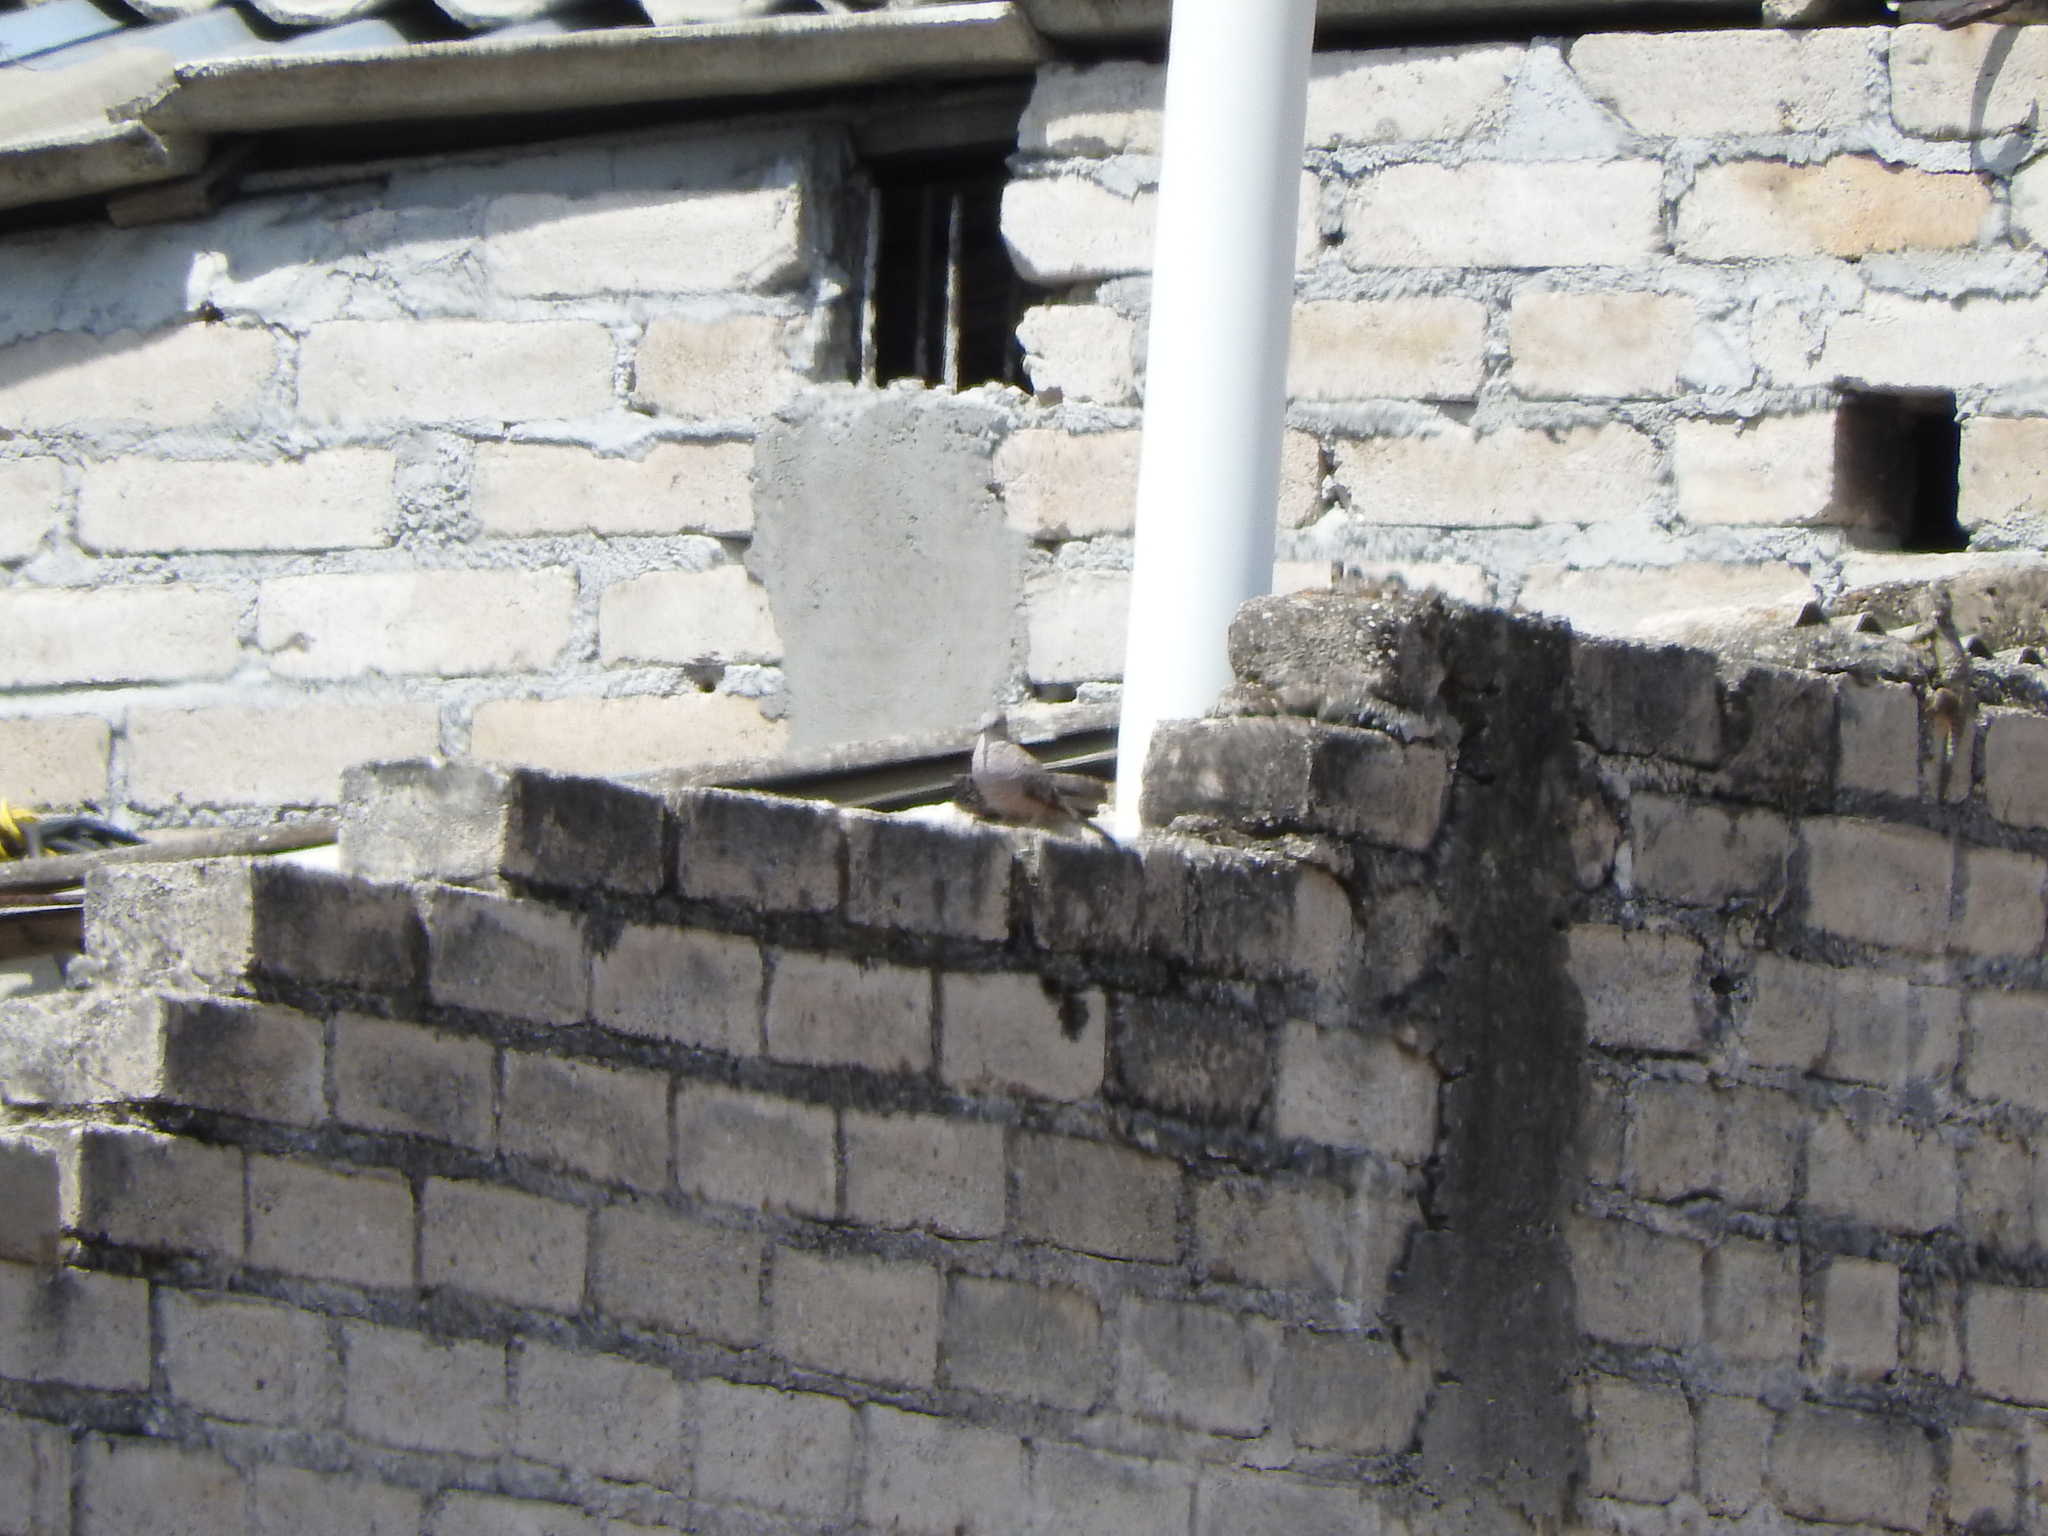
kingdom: Animalia
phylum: Chordata
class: Aves
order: Columbiformes
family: Columbidae
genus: Columbina
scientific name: Columbina inca
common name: Inca dove
